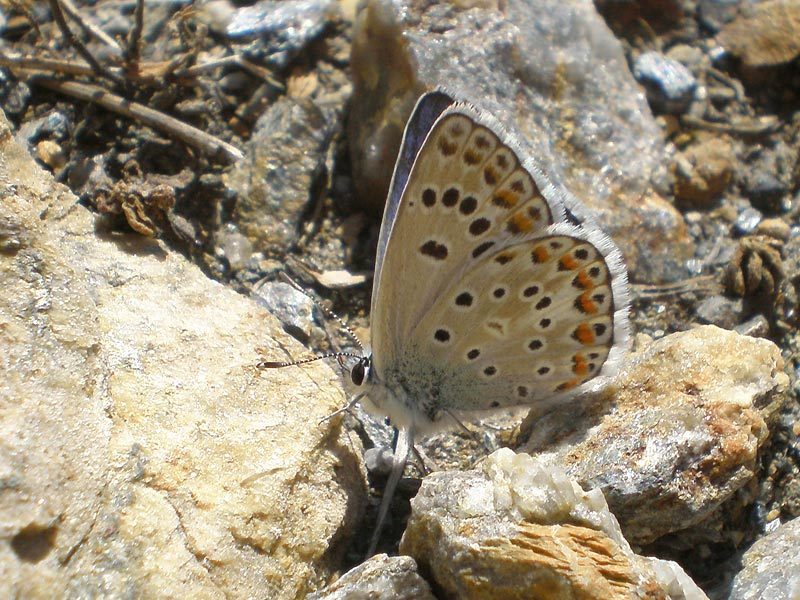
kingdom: Animalia
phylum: Arthropoda
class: Insecta
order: Lepidoptera
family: Lycaenidae
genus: Plebicula
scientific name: Plebicula escheri
